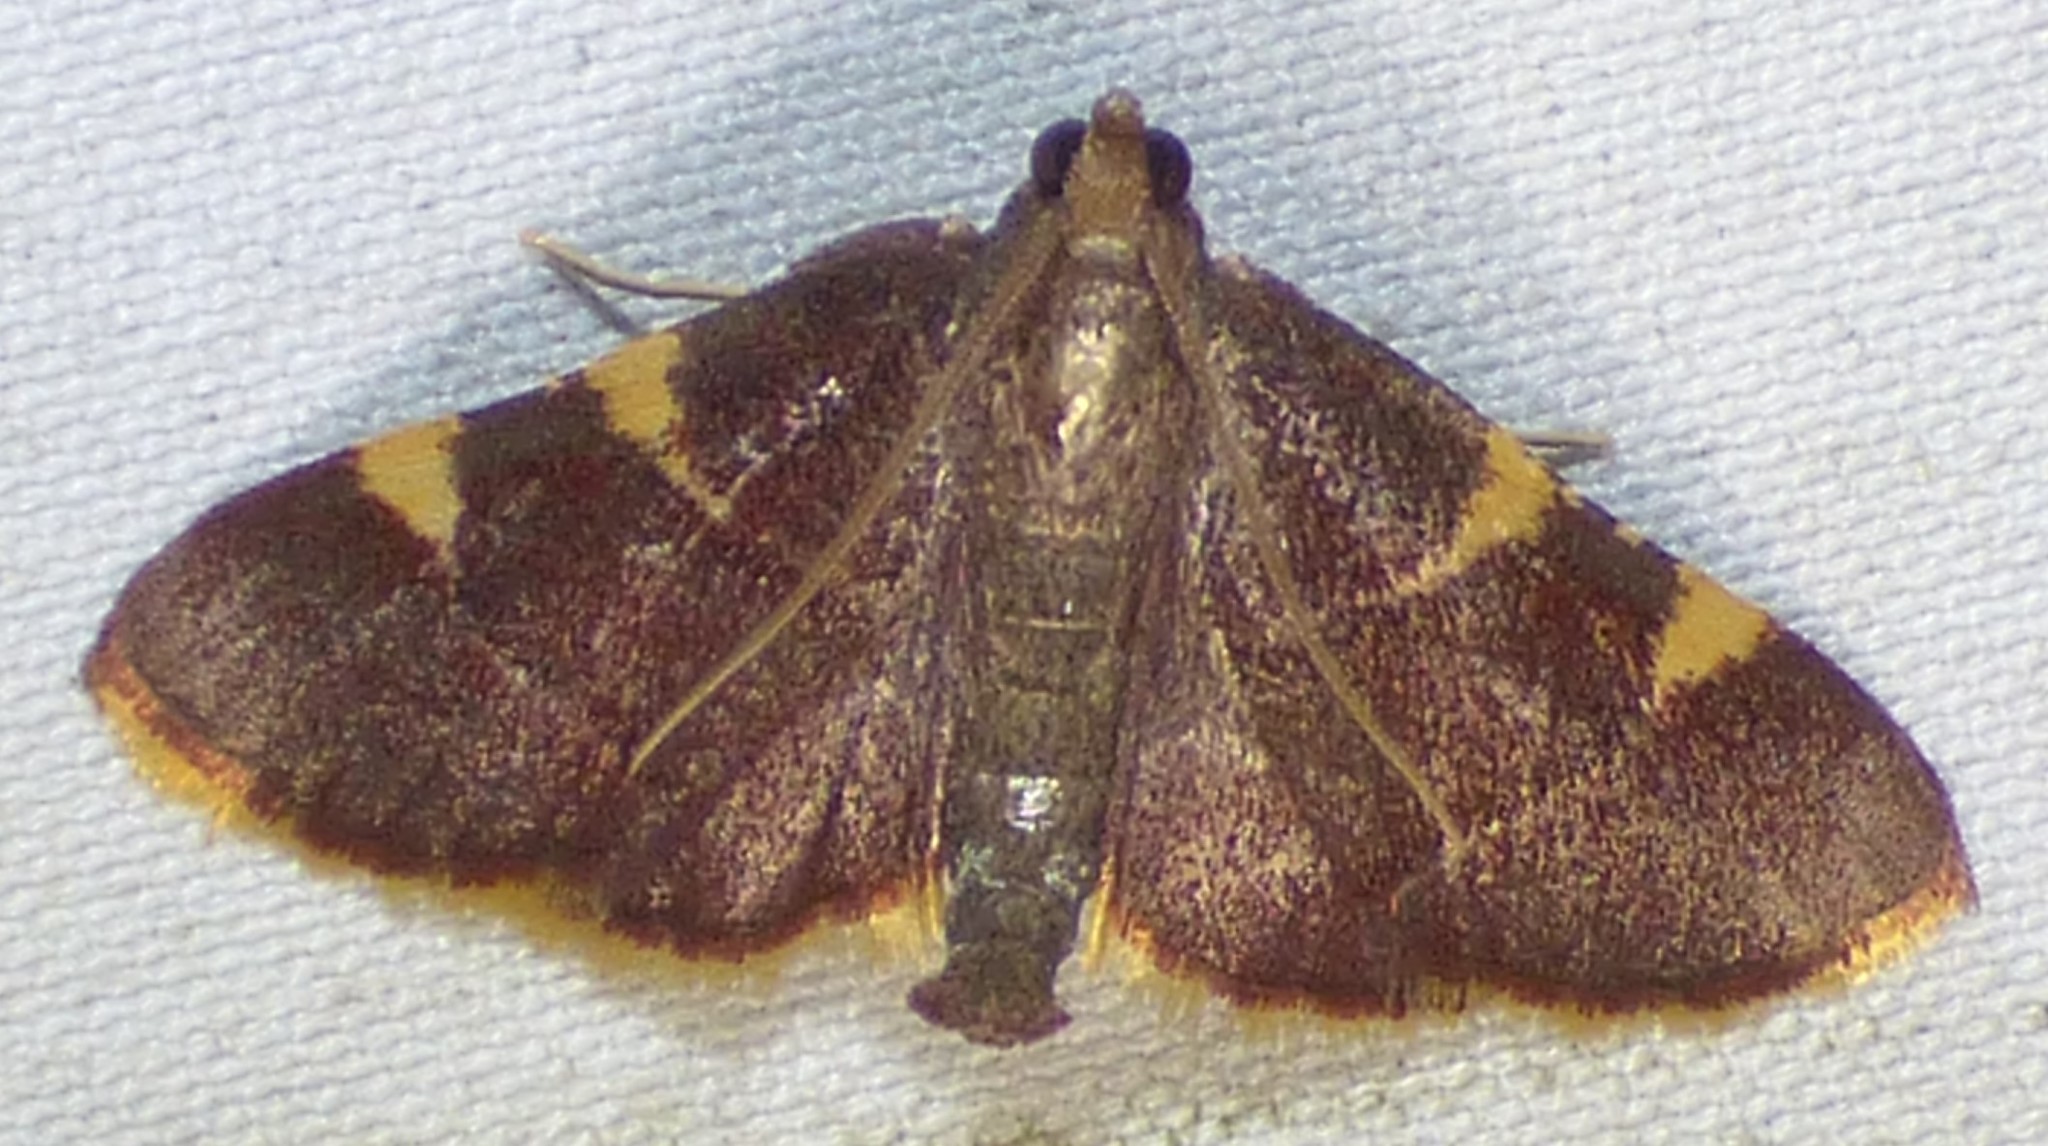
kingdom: Animalia
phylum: Arthropoda
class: Insecta
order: Lepidoptera
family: Pyralidae
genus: Hypsopygia
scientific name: Hypsopygia olinalis
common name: Yellow-fringed dolichomia moth
